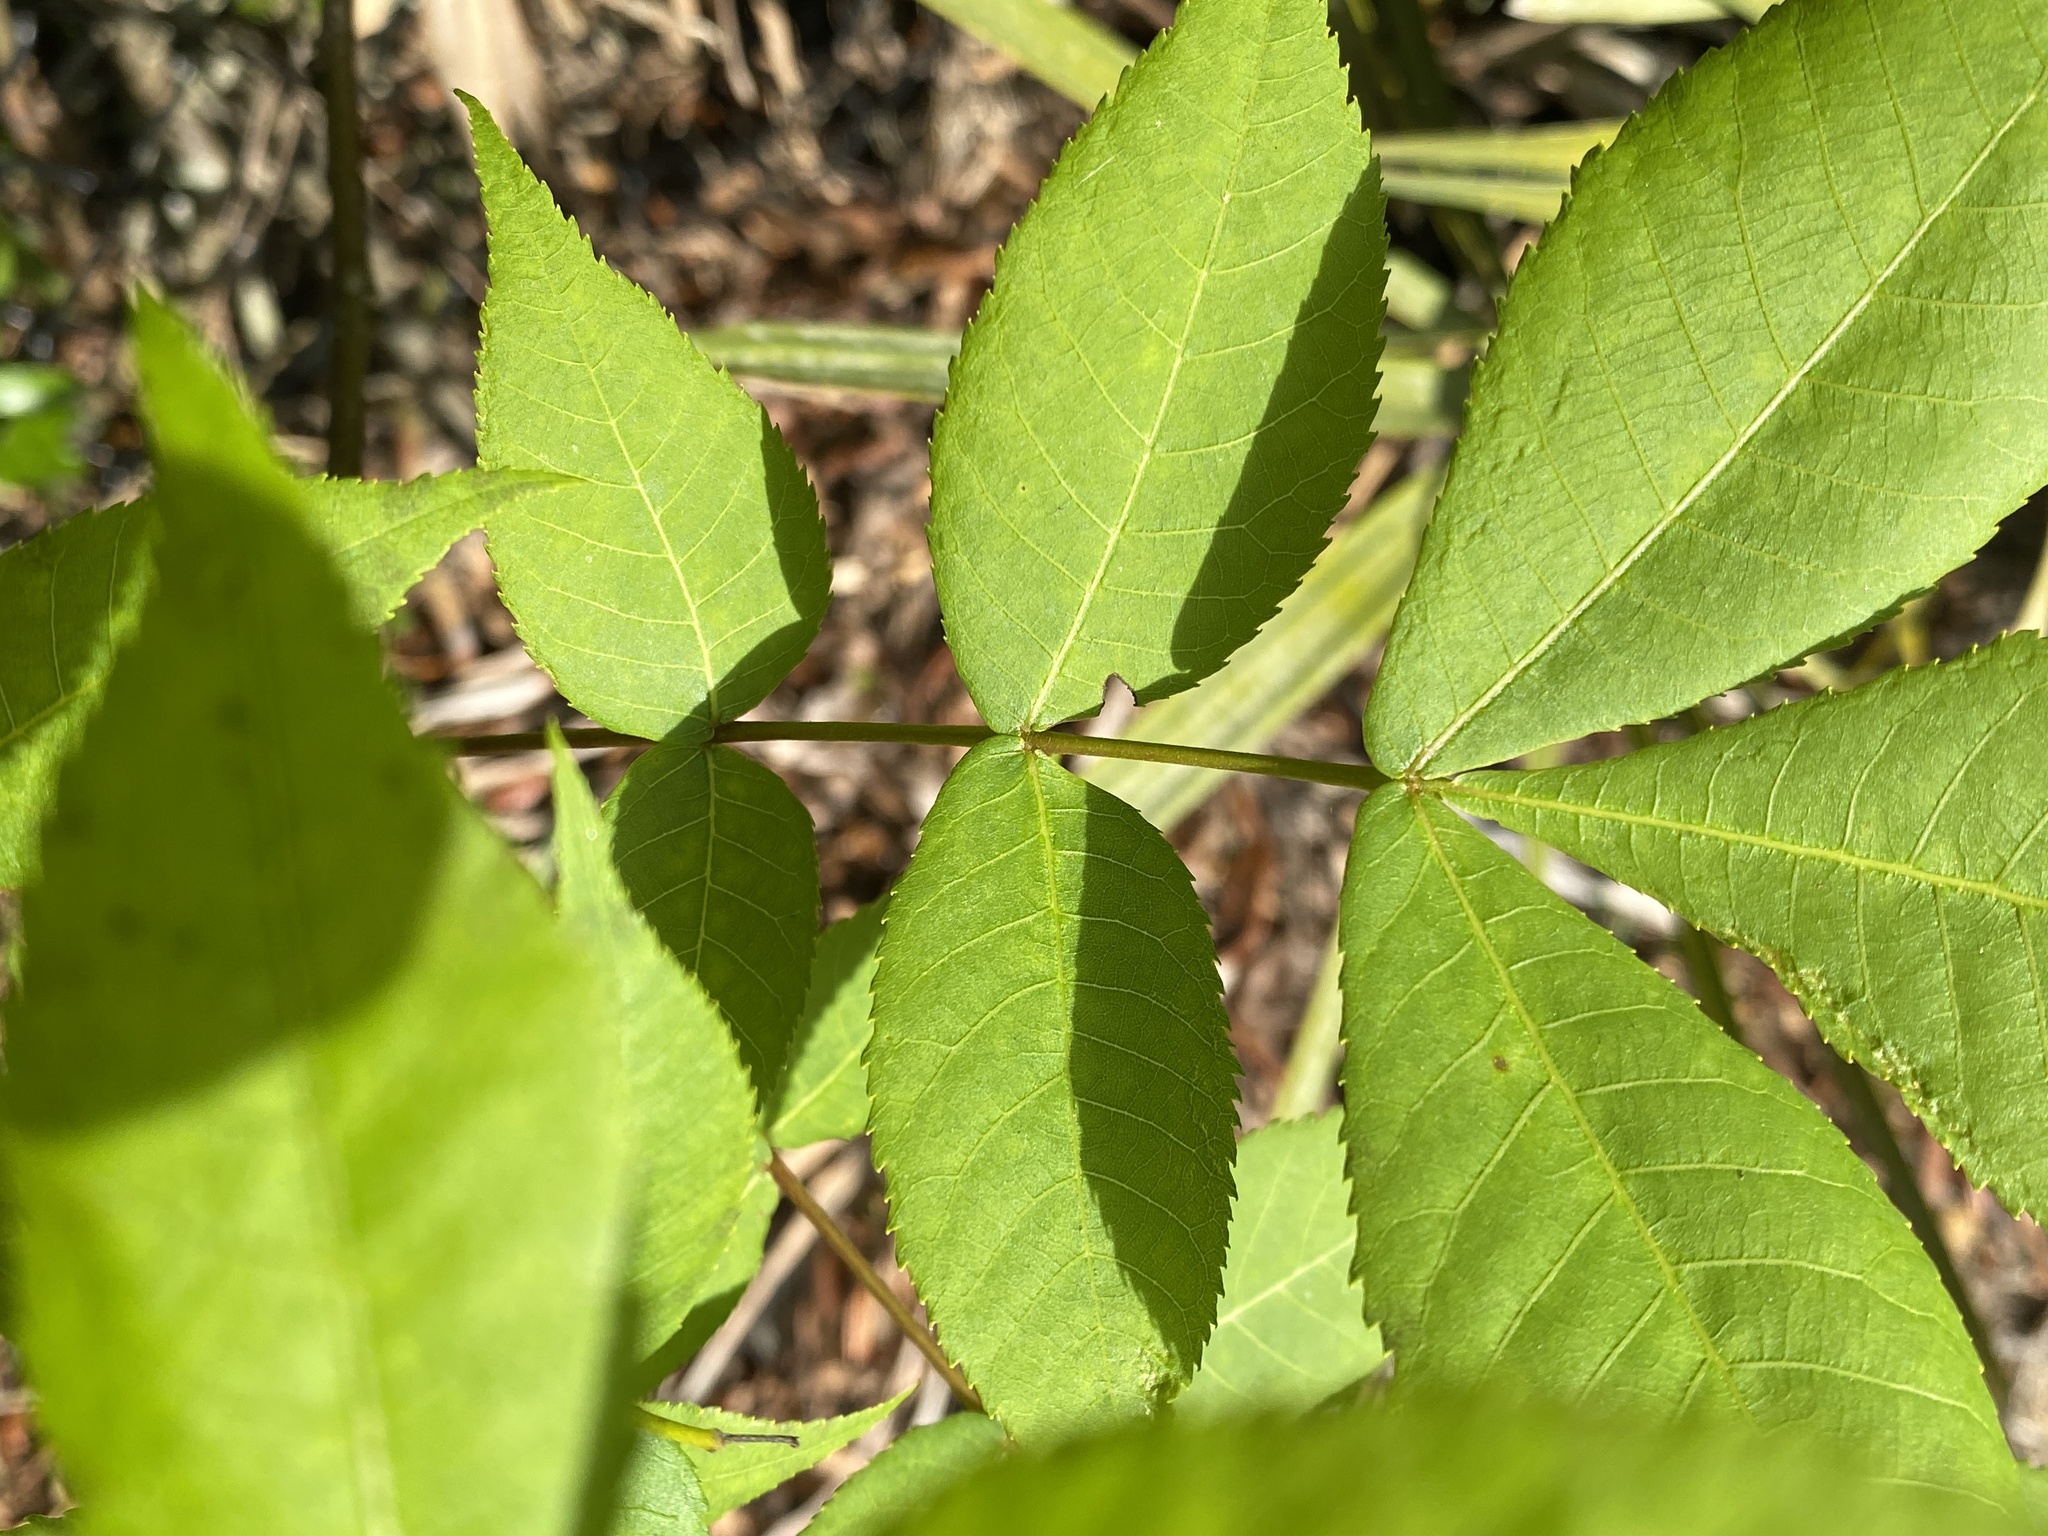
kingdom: Plantae
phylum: Tracheophyta
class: Magnoliopsida
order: Fagales
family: Juglandaceae
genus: Carya
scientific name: Carya glabra
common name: Pignut hickory
